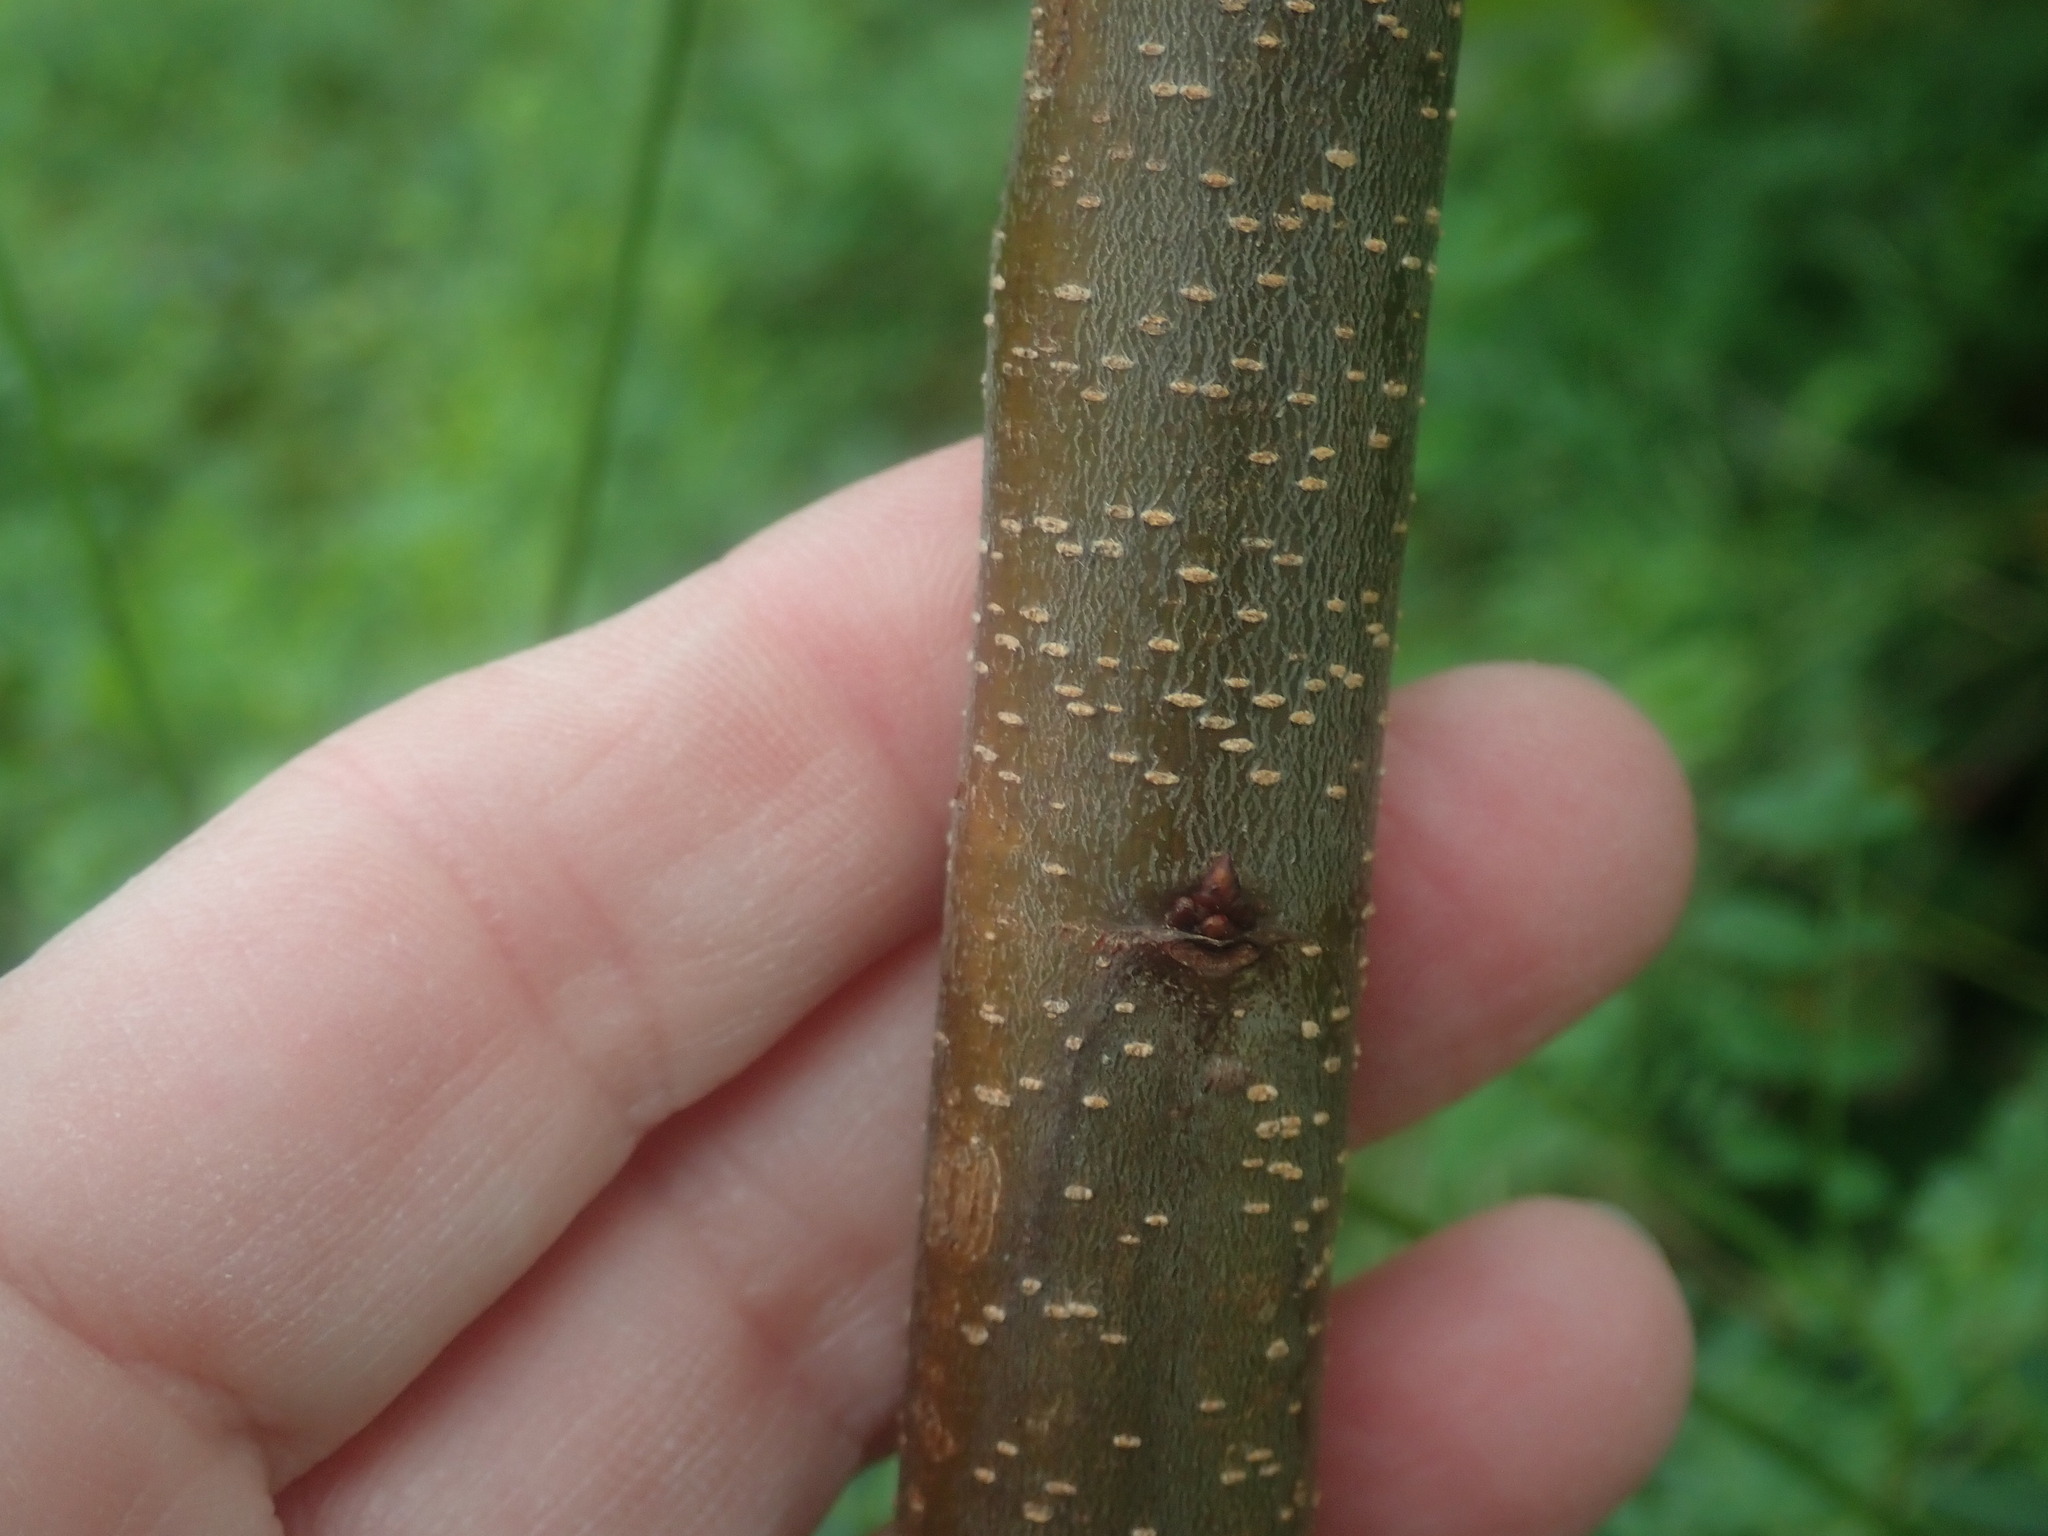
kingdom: Plantae
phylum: Tracheophyta
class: Magnoliopsida
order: Rosales
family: Rosaceae
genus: Prunus
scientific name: Prunus serotina
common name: Black cherry
